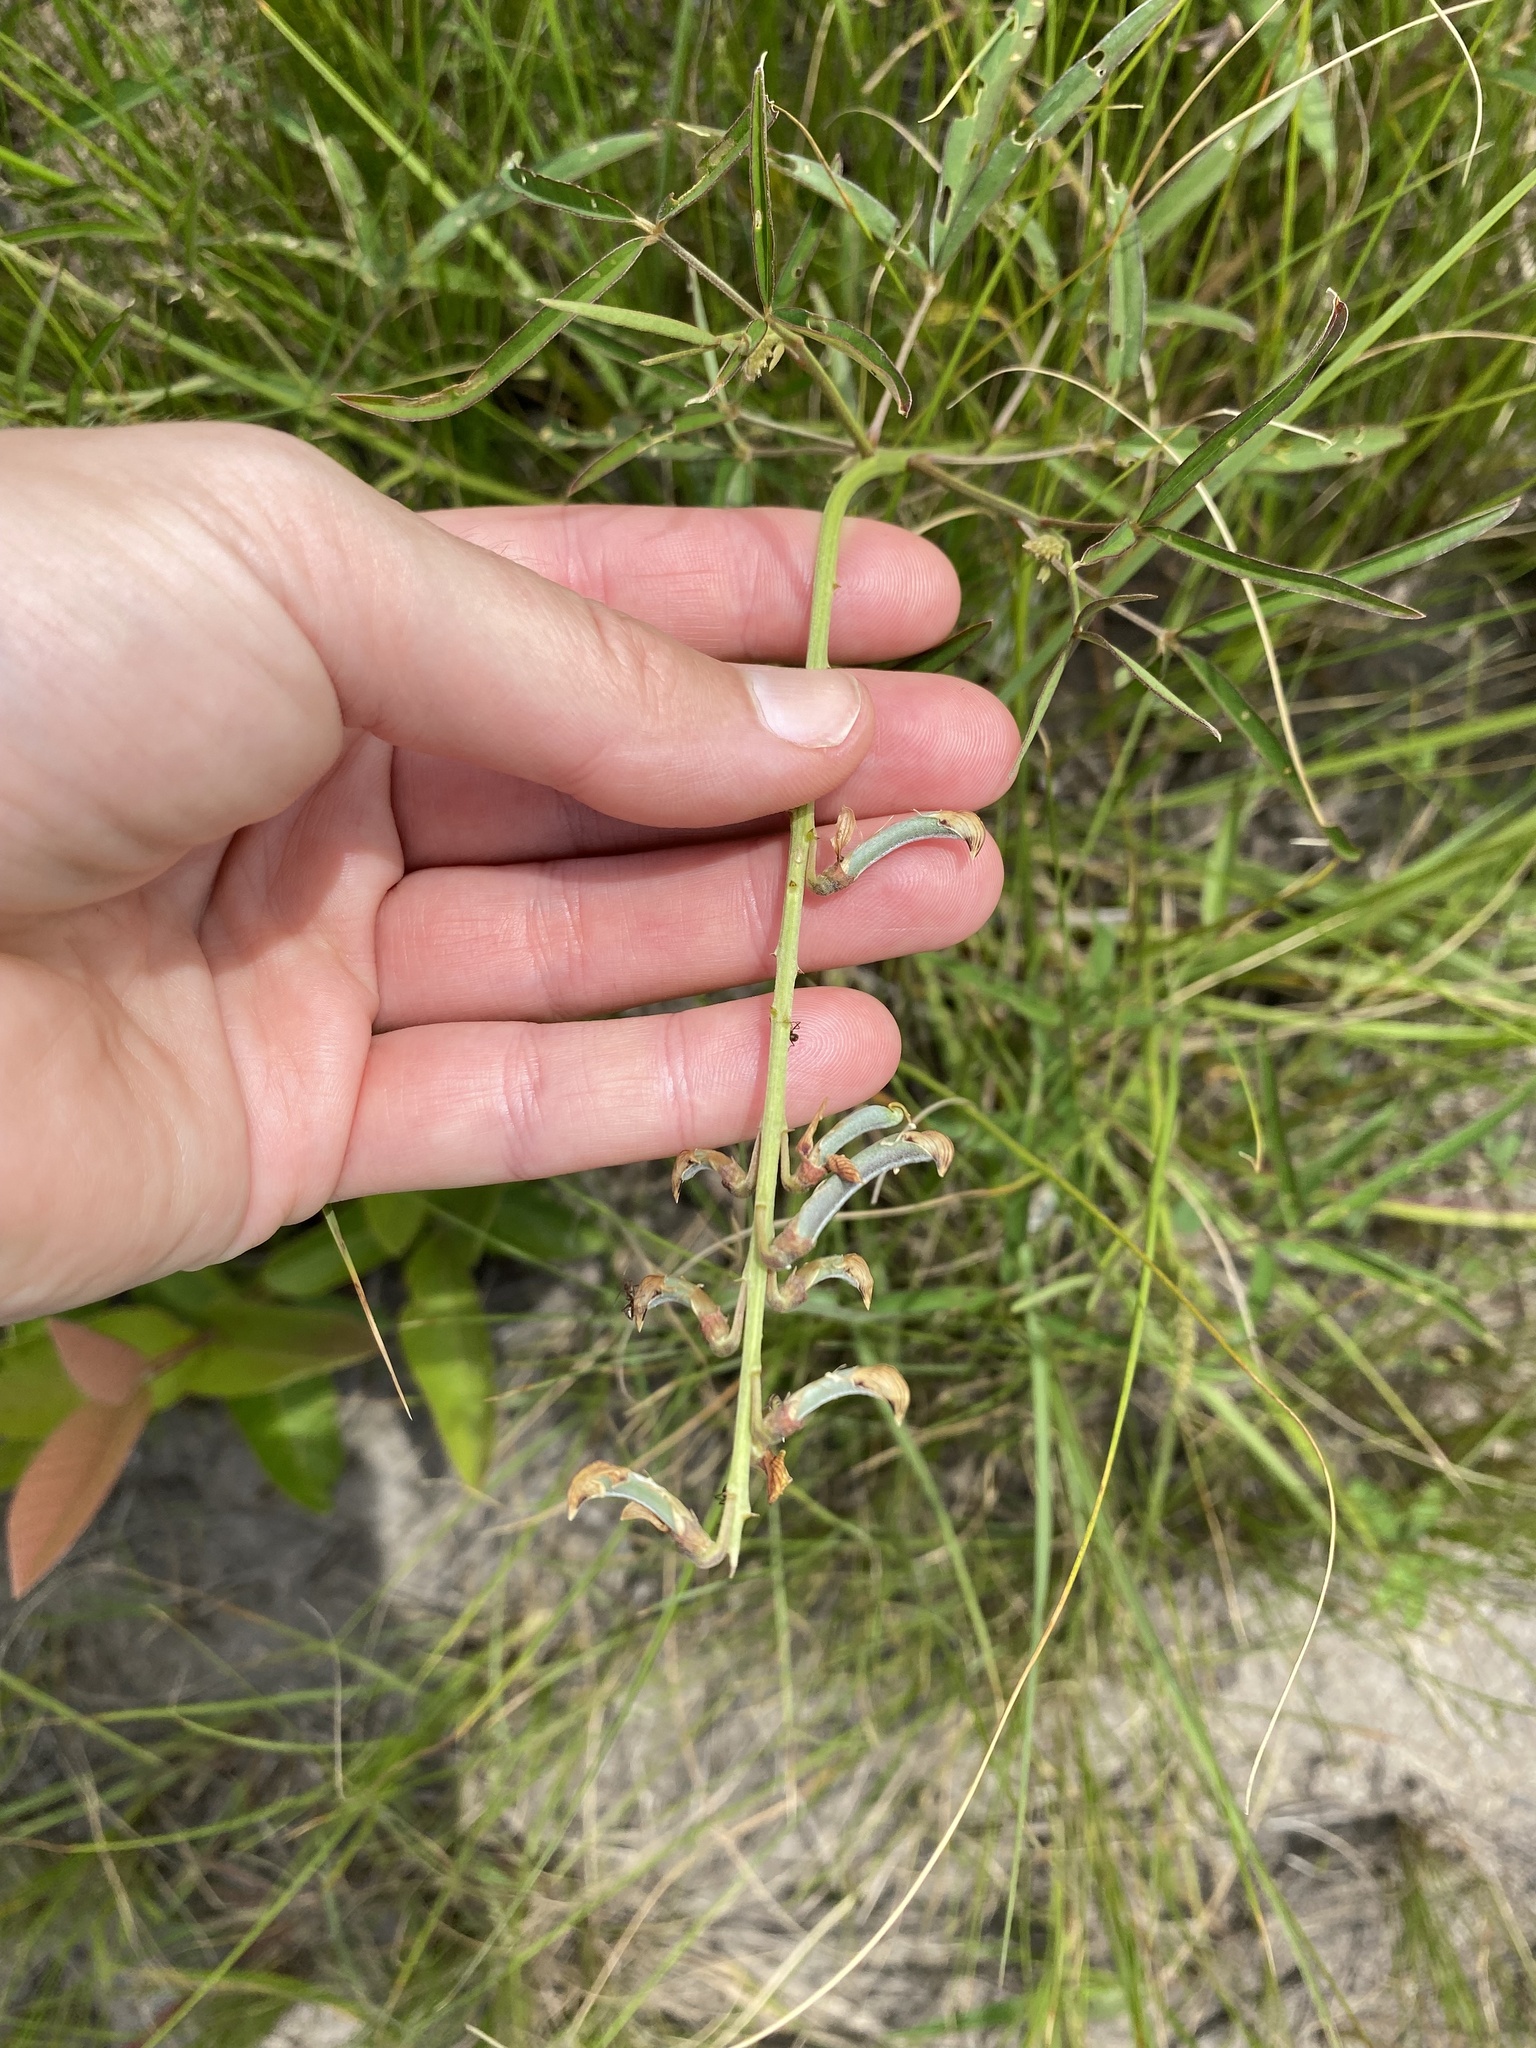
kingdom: Plantae
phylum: Tracheophyta
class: Magnoliopsida
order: Fabales
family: Fabaceae
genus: Crotalaria
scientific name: Crotalaria lanceolata
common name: Lanceleaf rattlebox
